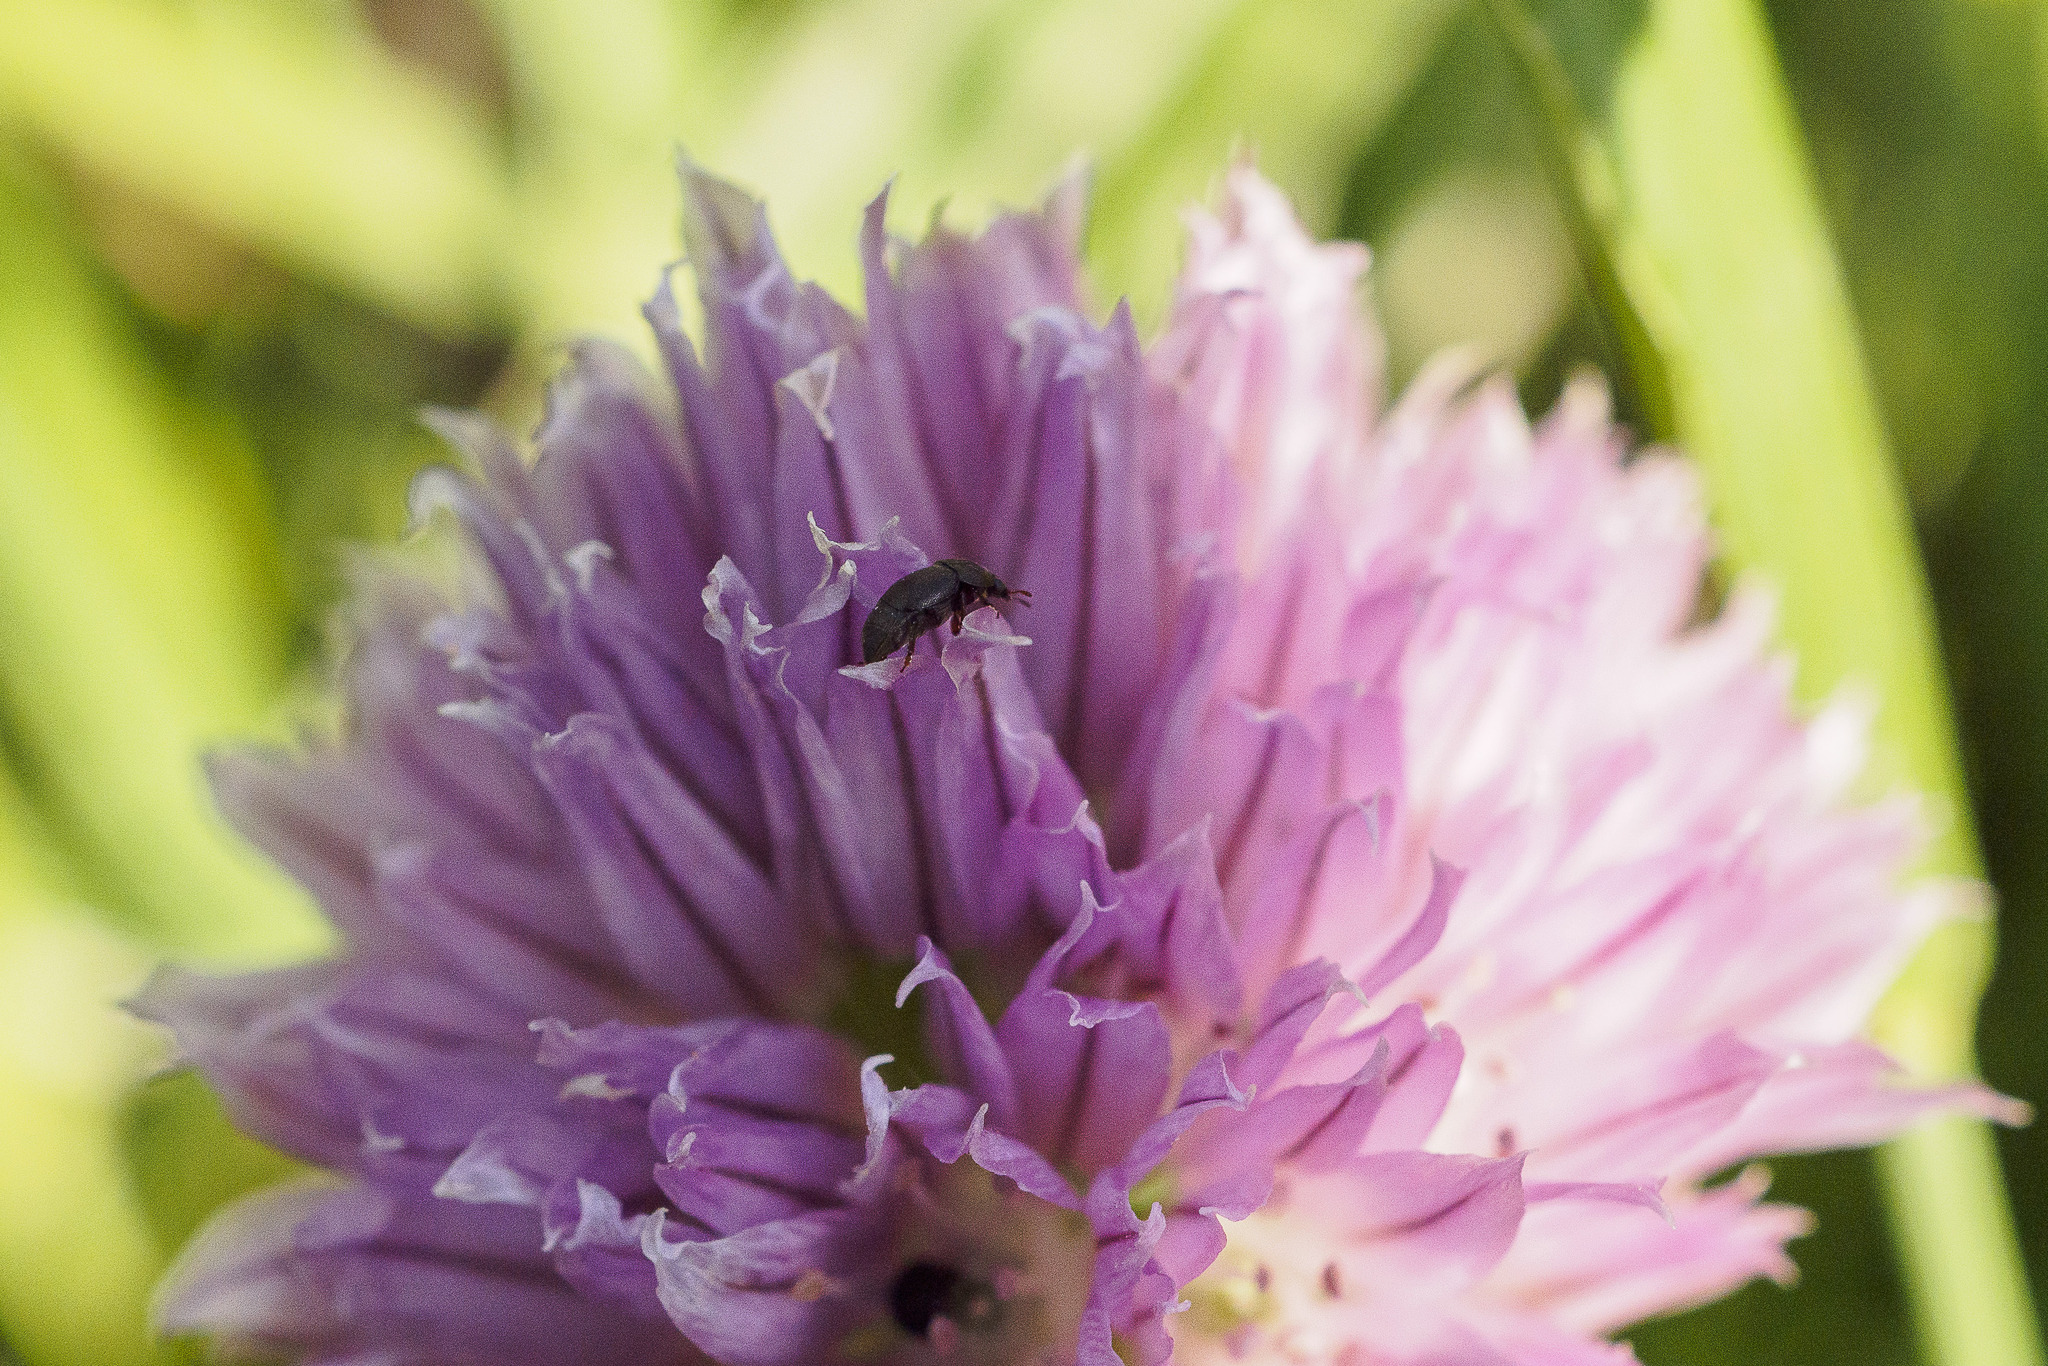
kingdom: Plantae
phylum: Tracheophyta
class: Liliopsida
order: Asparagales
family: Amaryllidaceae
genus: Allium
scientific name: Allium schoenoprasum
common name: Chives
